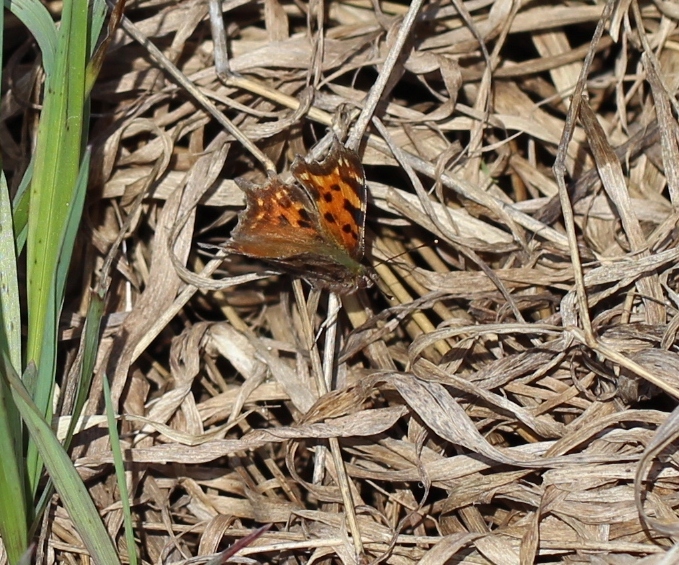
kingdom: Animalia
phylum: Arthropoda
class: Insecta
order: Lepidoptera
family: Nymphalidae
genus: Polygonia
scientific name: Polygonia c-album
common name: Comma
